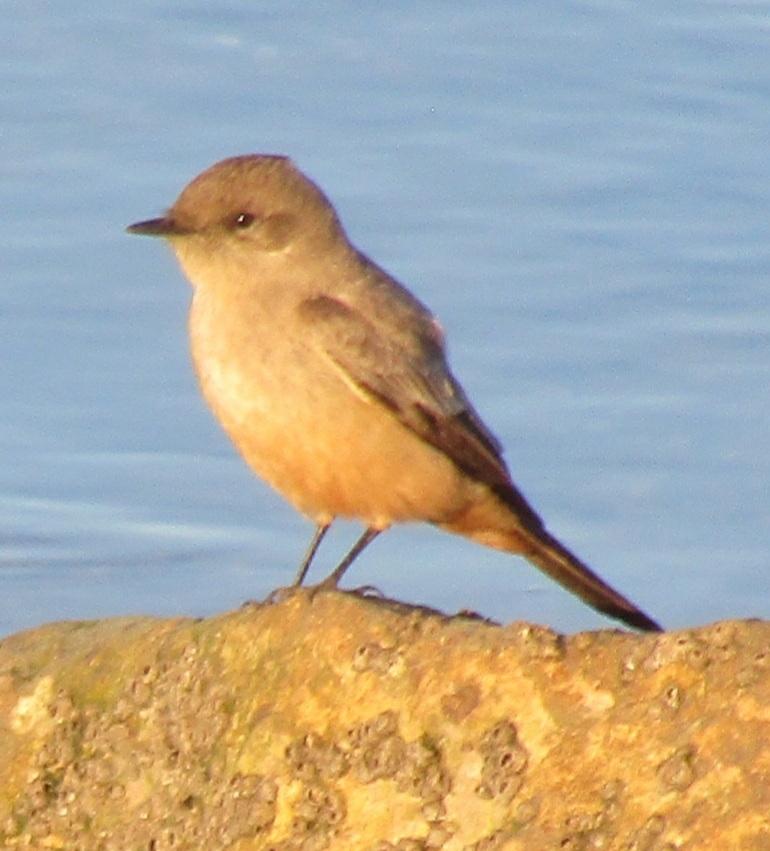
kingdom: Animalia
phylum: Chordata
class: Aves
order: Passeriformes
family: Tyrannidae
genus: Sayornis
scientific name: Sayornis saya
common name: Say's phoebe
